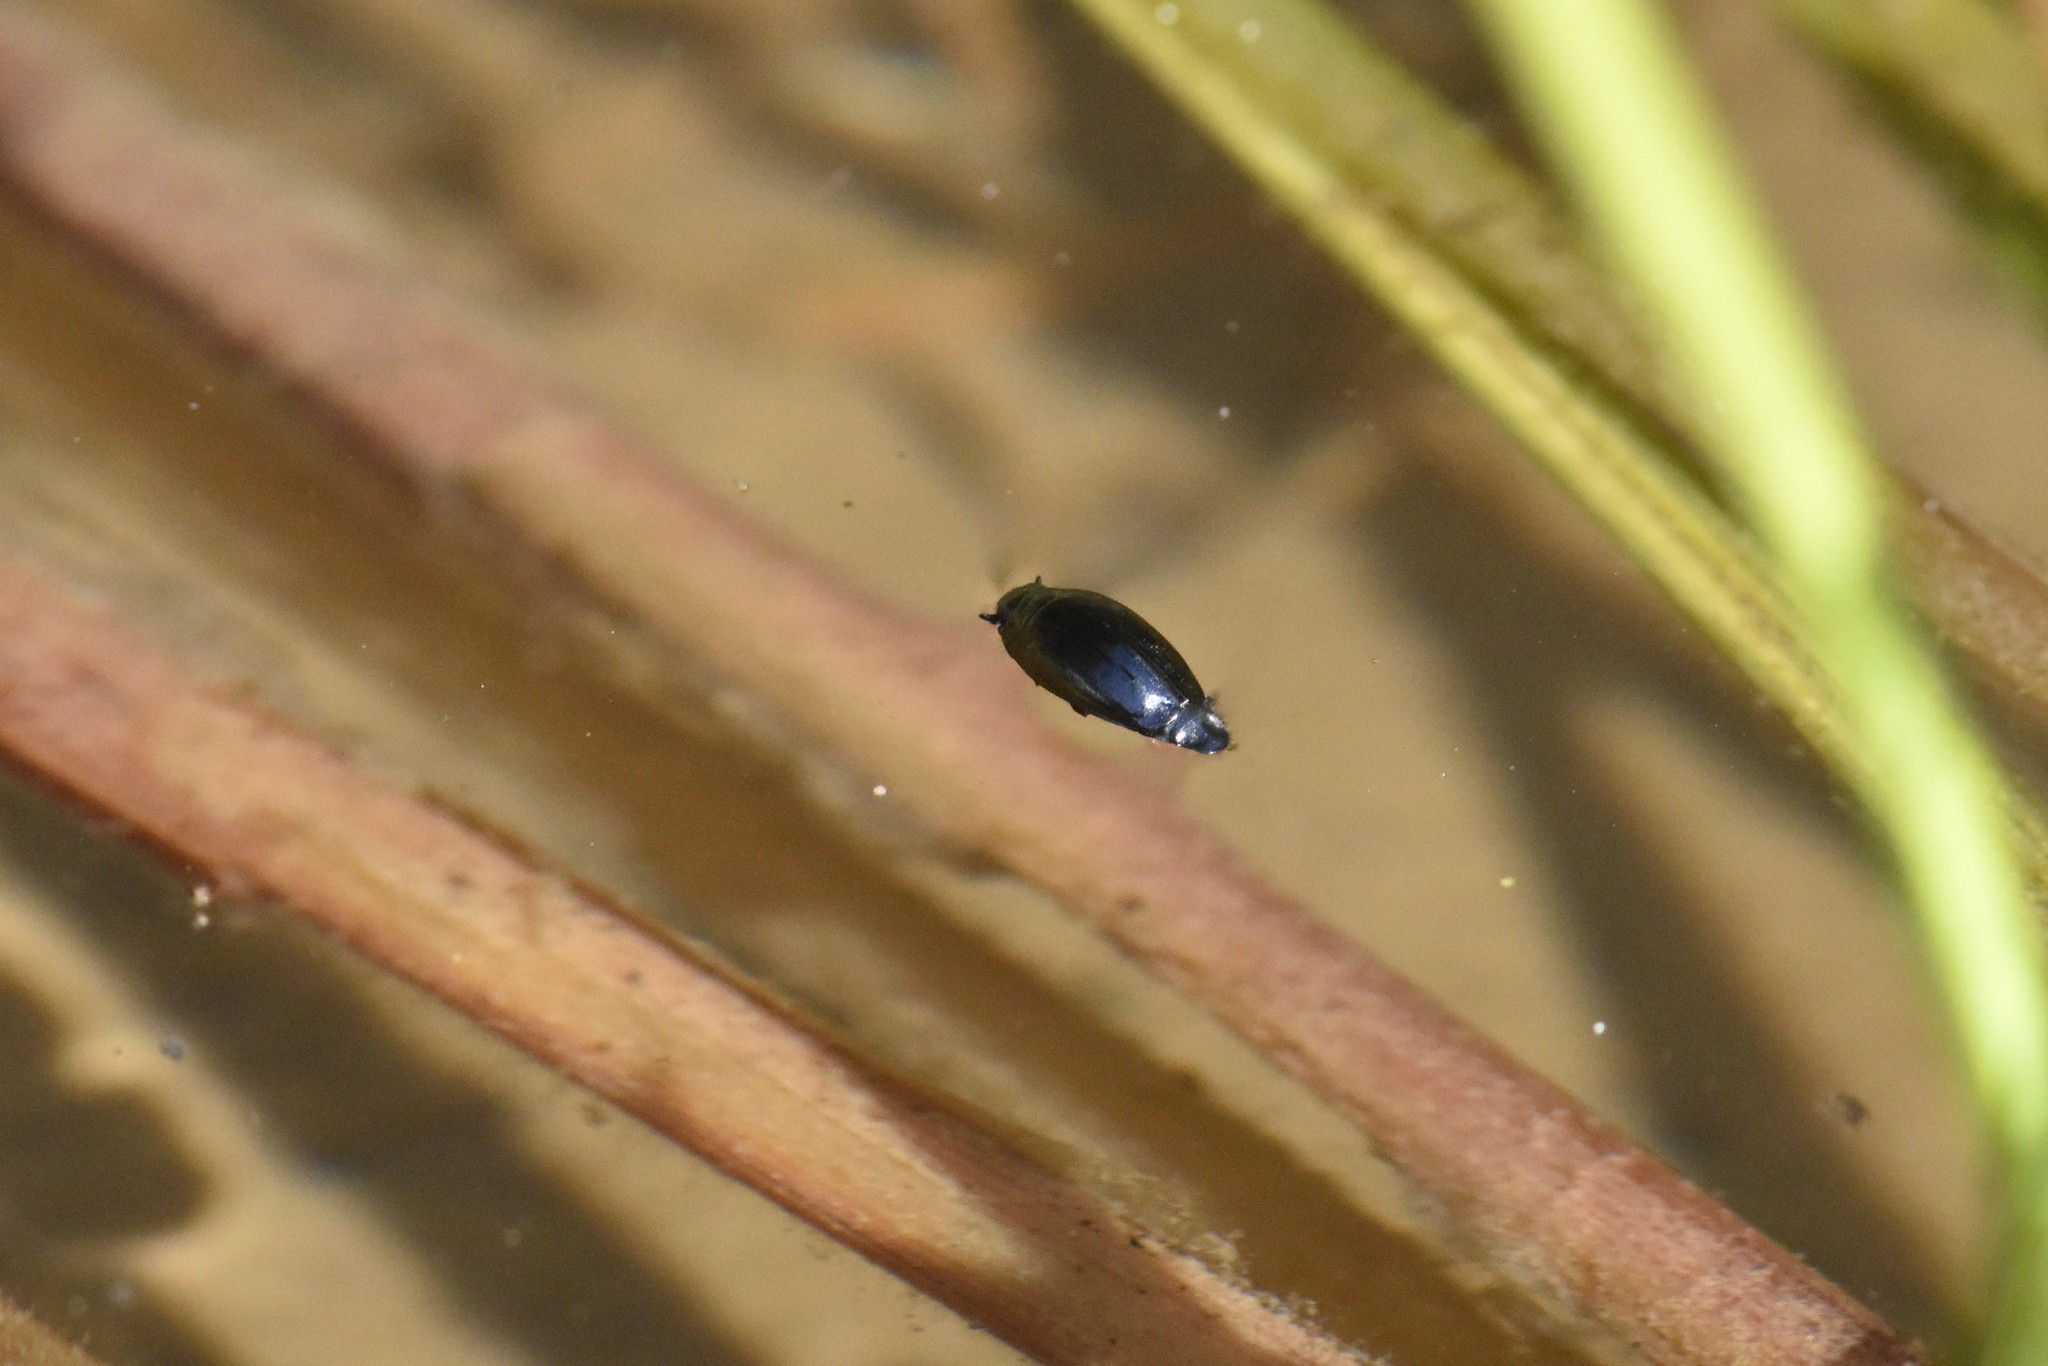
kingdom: Animalia
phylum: Arthropoda
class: Insecta
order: Coleoptera
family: Gyrinidae
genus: Gyrinus
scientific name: Gyrinus
